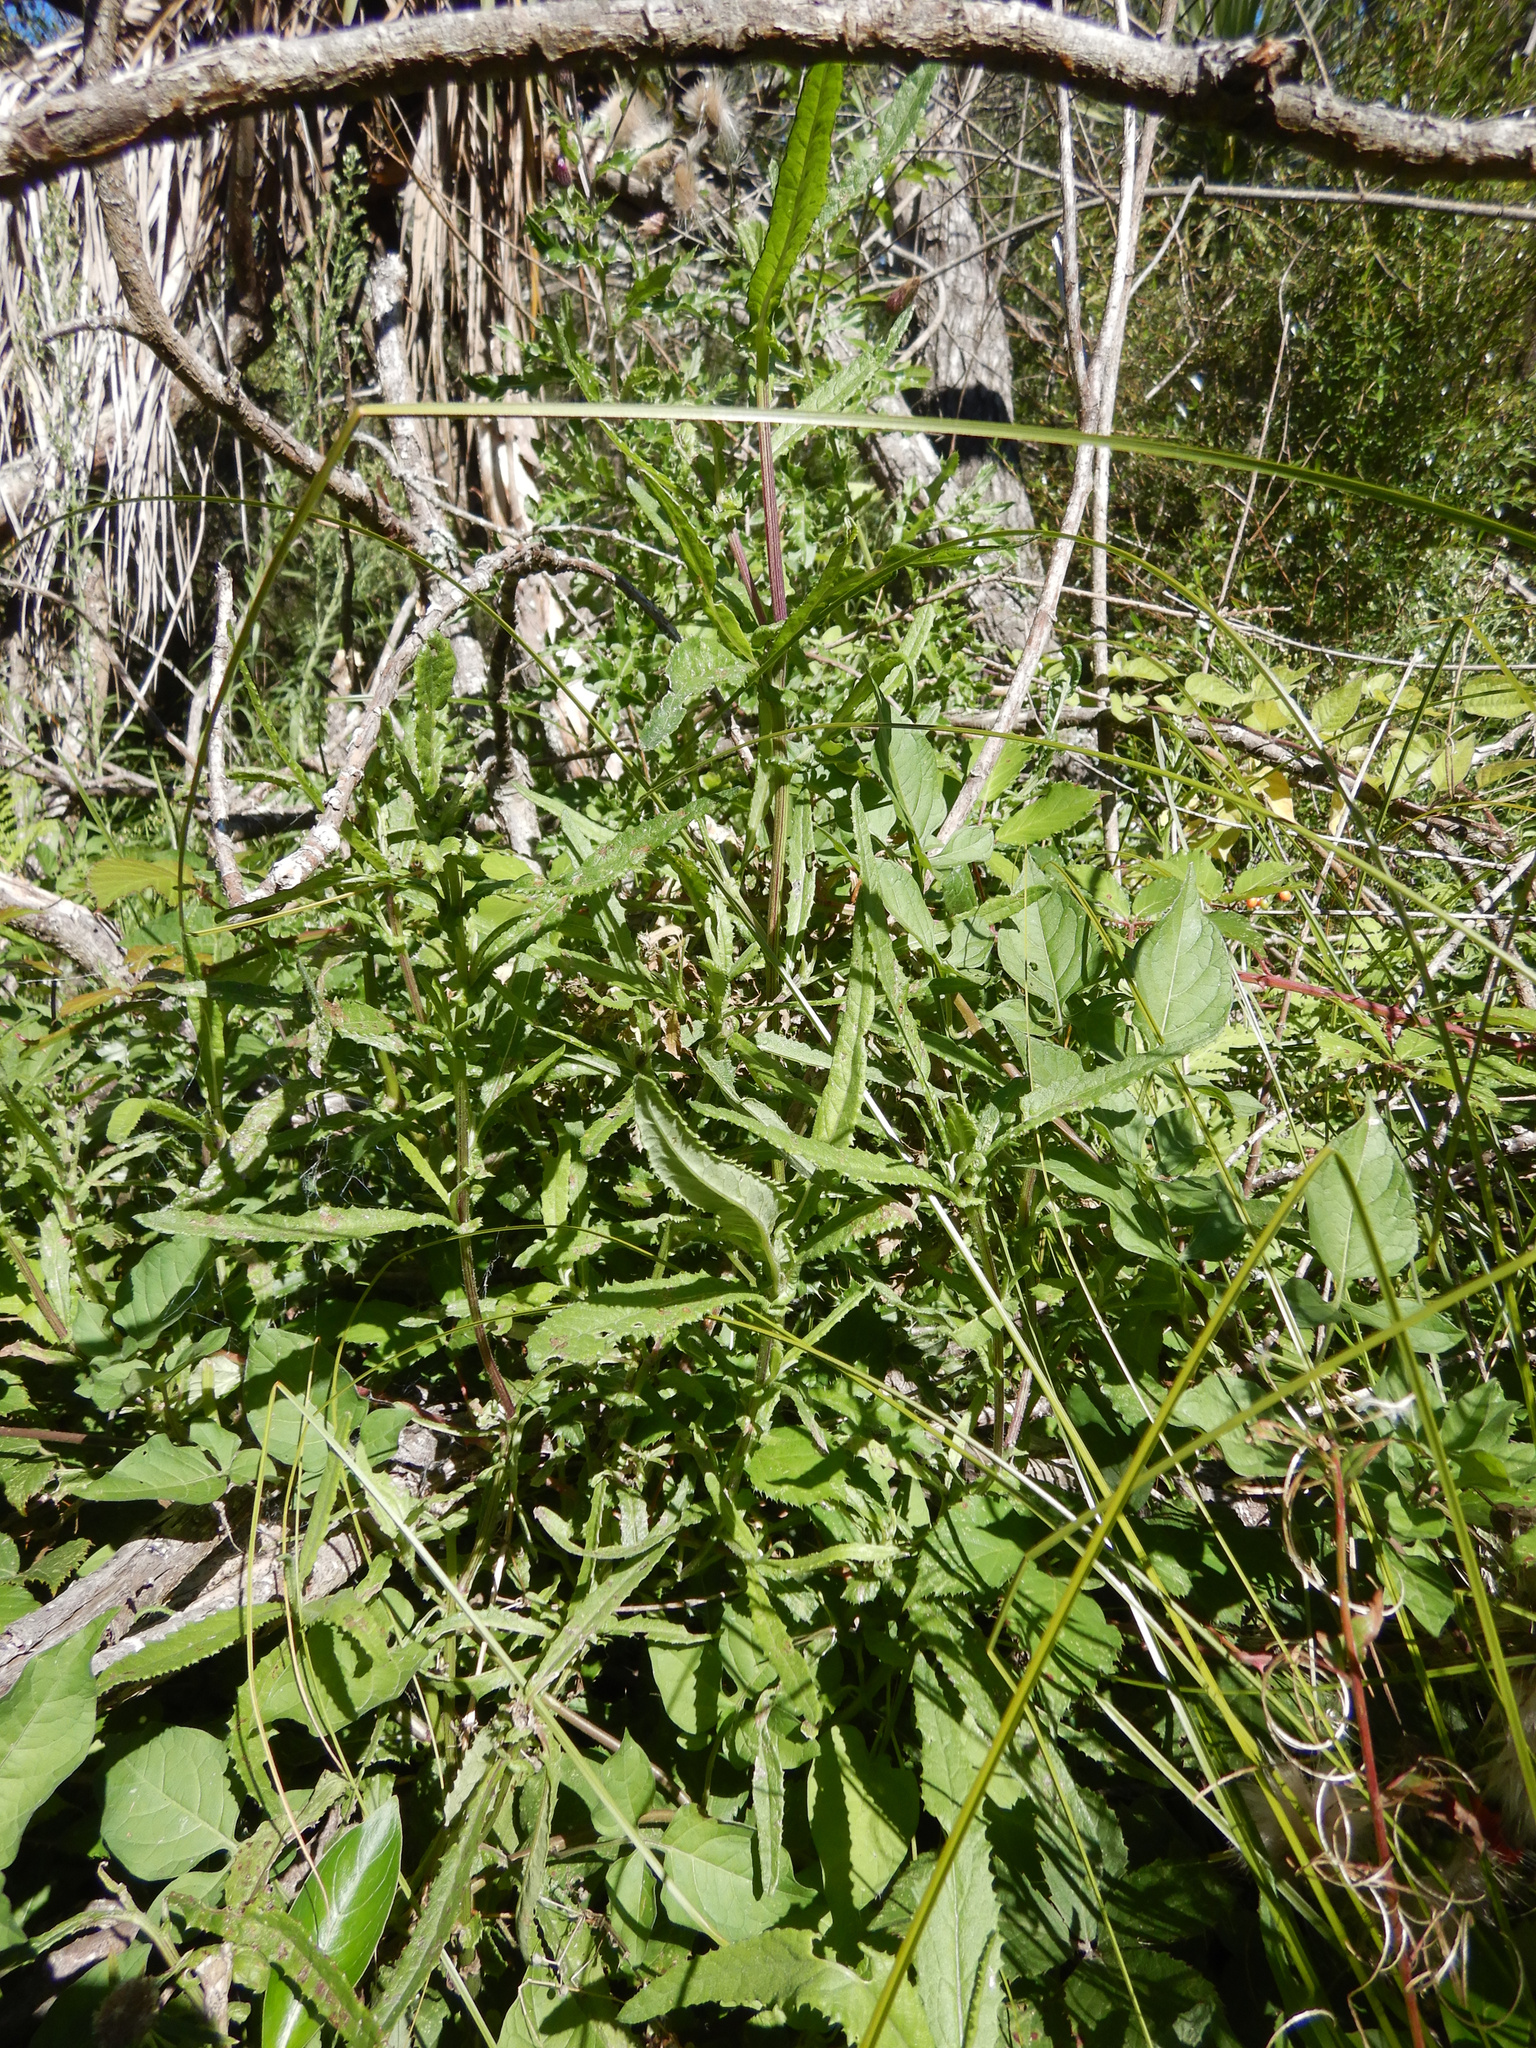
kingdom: Plantae
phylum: Tracheophyta
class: Magnoliopsida
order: Asterales
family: Asteraceae
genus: Senecio
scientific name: Senecio minimus
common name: Toothed fireweed
